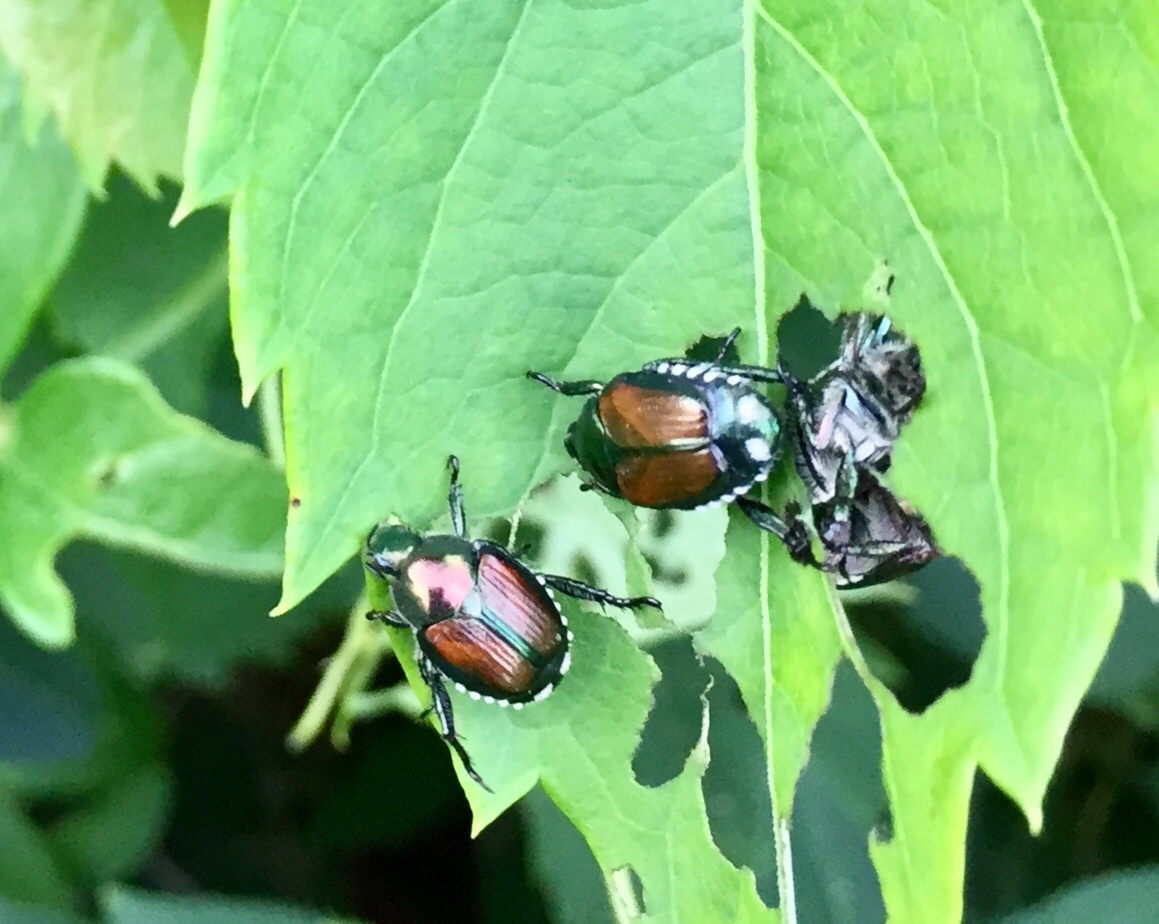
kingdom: Animalia
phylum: Arthropoda
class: Insecta
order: Coleoptera
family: Scarabaeidae
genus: Popillia
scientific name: Popillia japonica
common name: Japanese beetle
